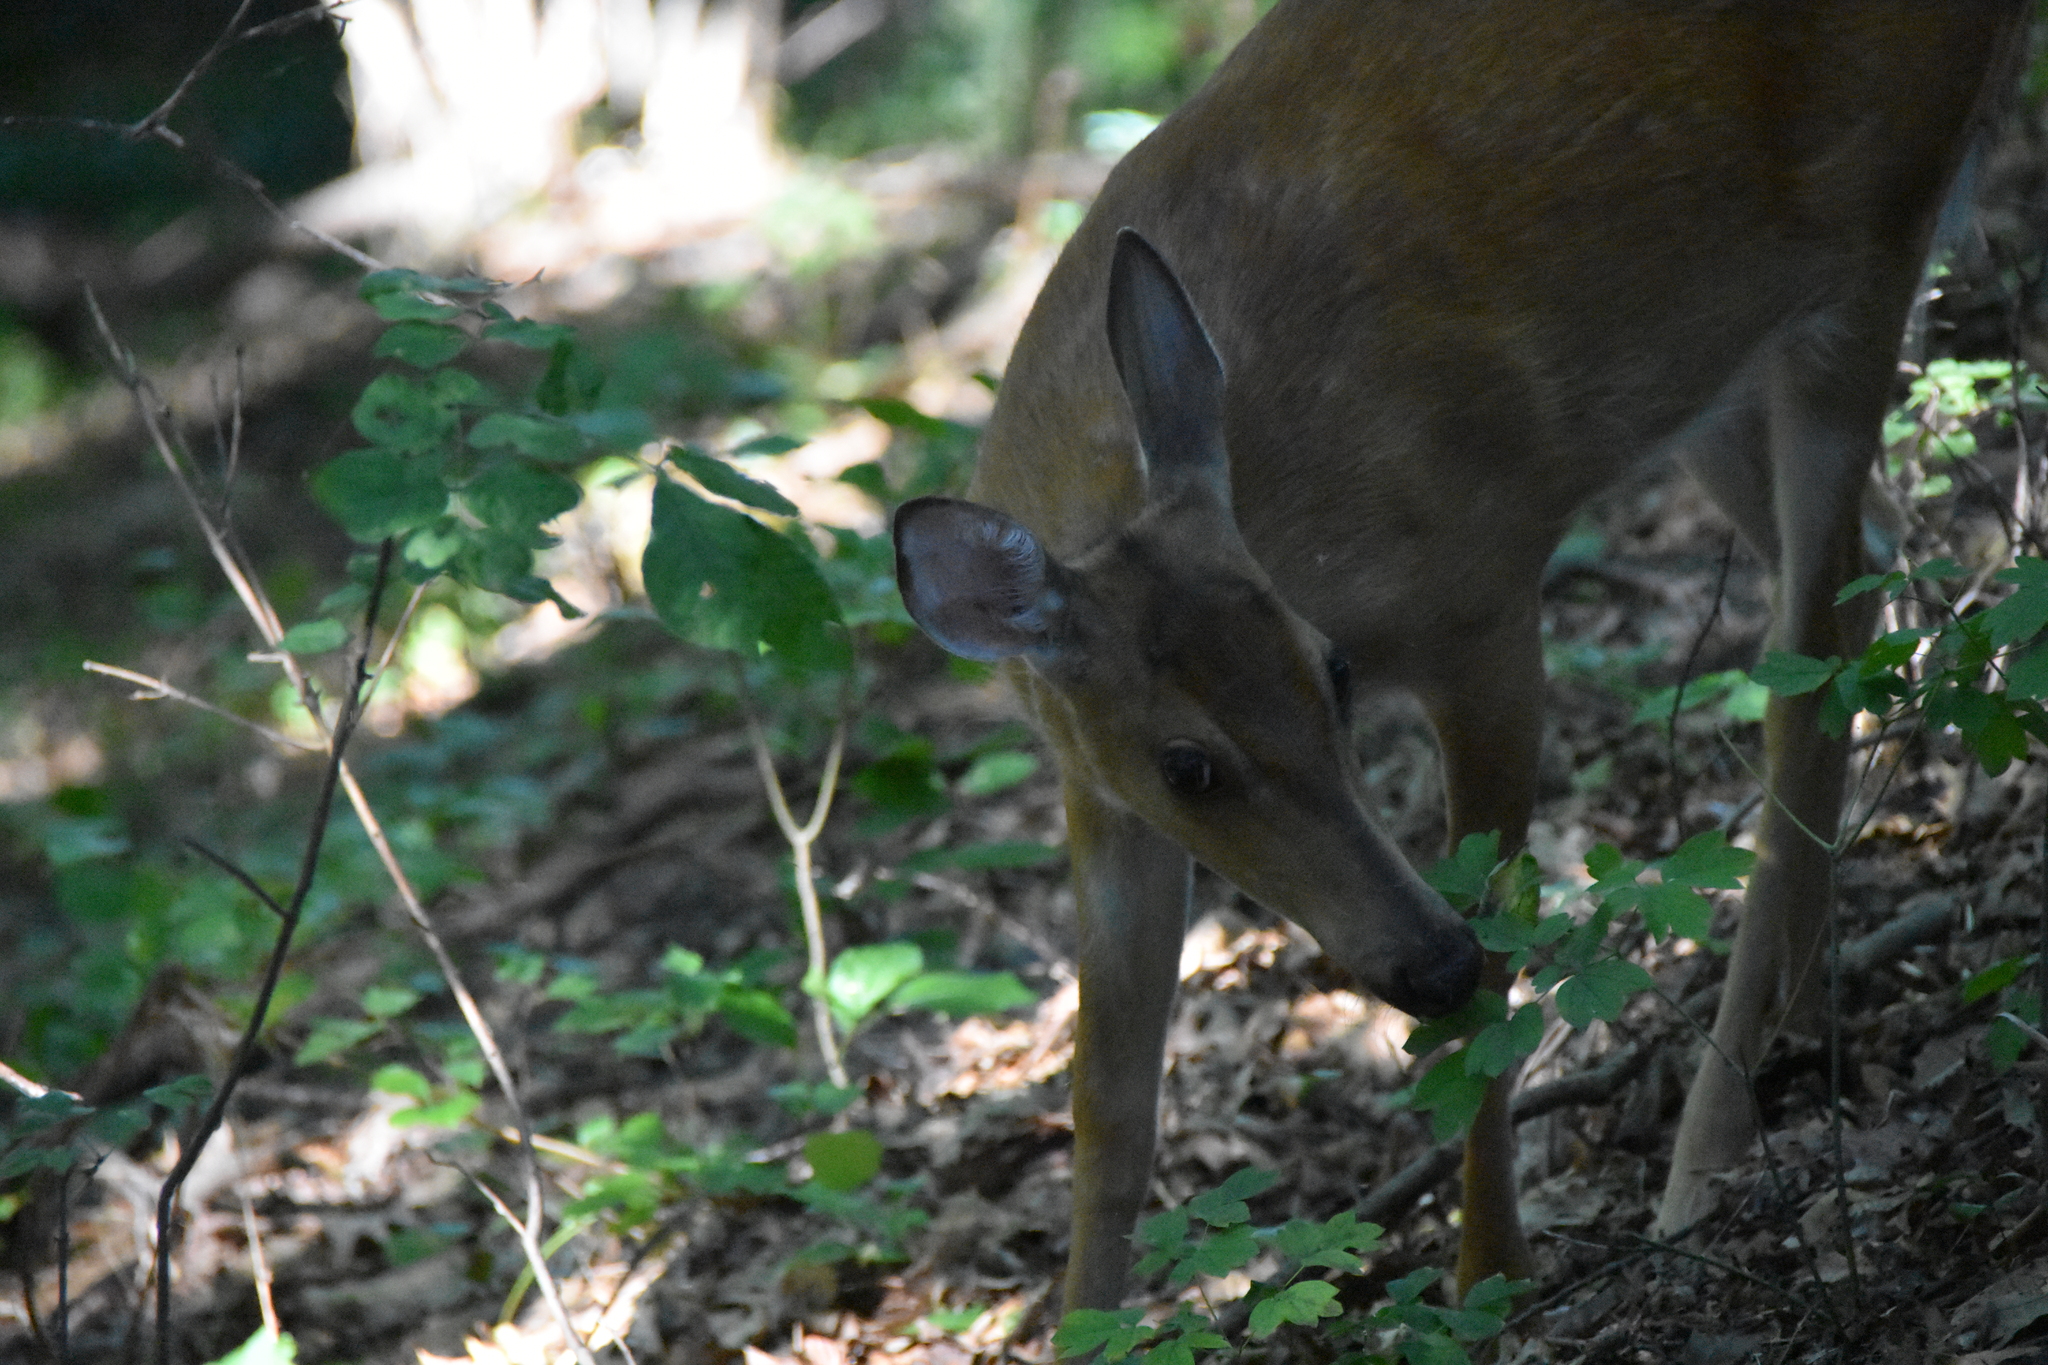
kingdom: Animalia
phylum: Chordata
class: Mammalia
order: Artiodactyla
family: Cervidae
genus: Odocoileus
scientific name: Odocoileus virginianus
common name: White-tailed deer
